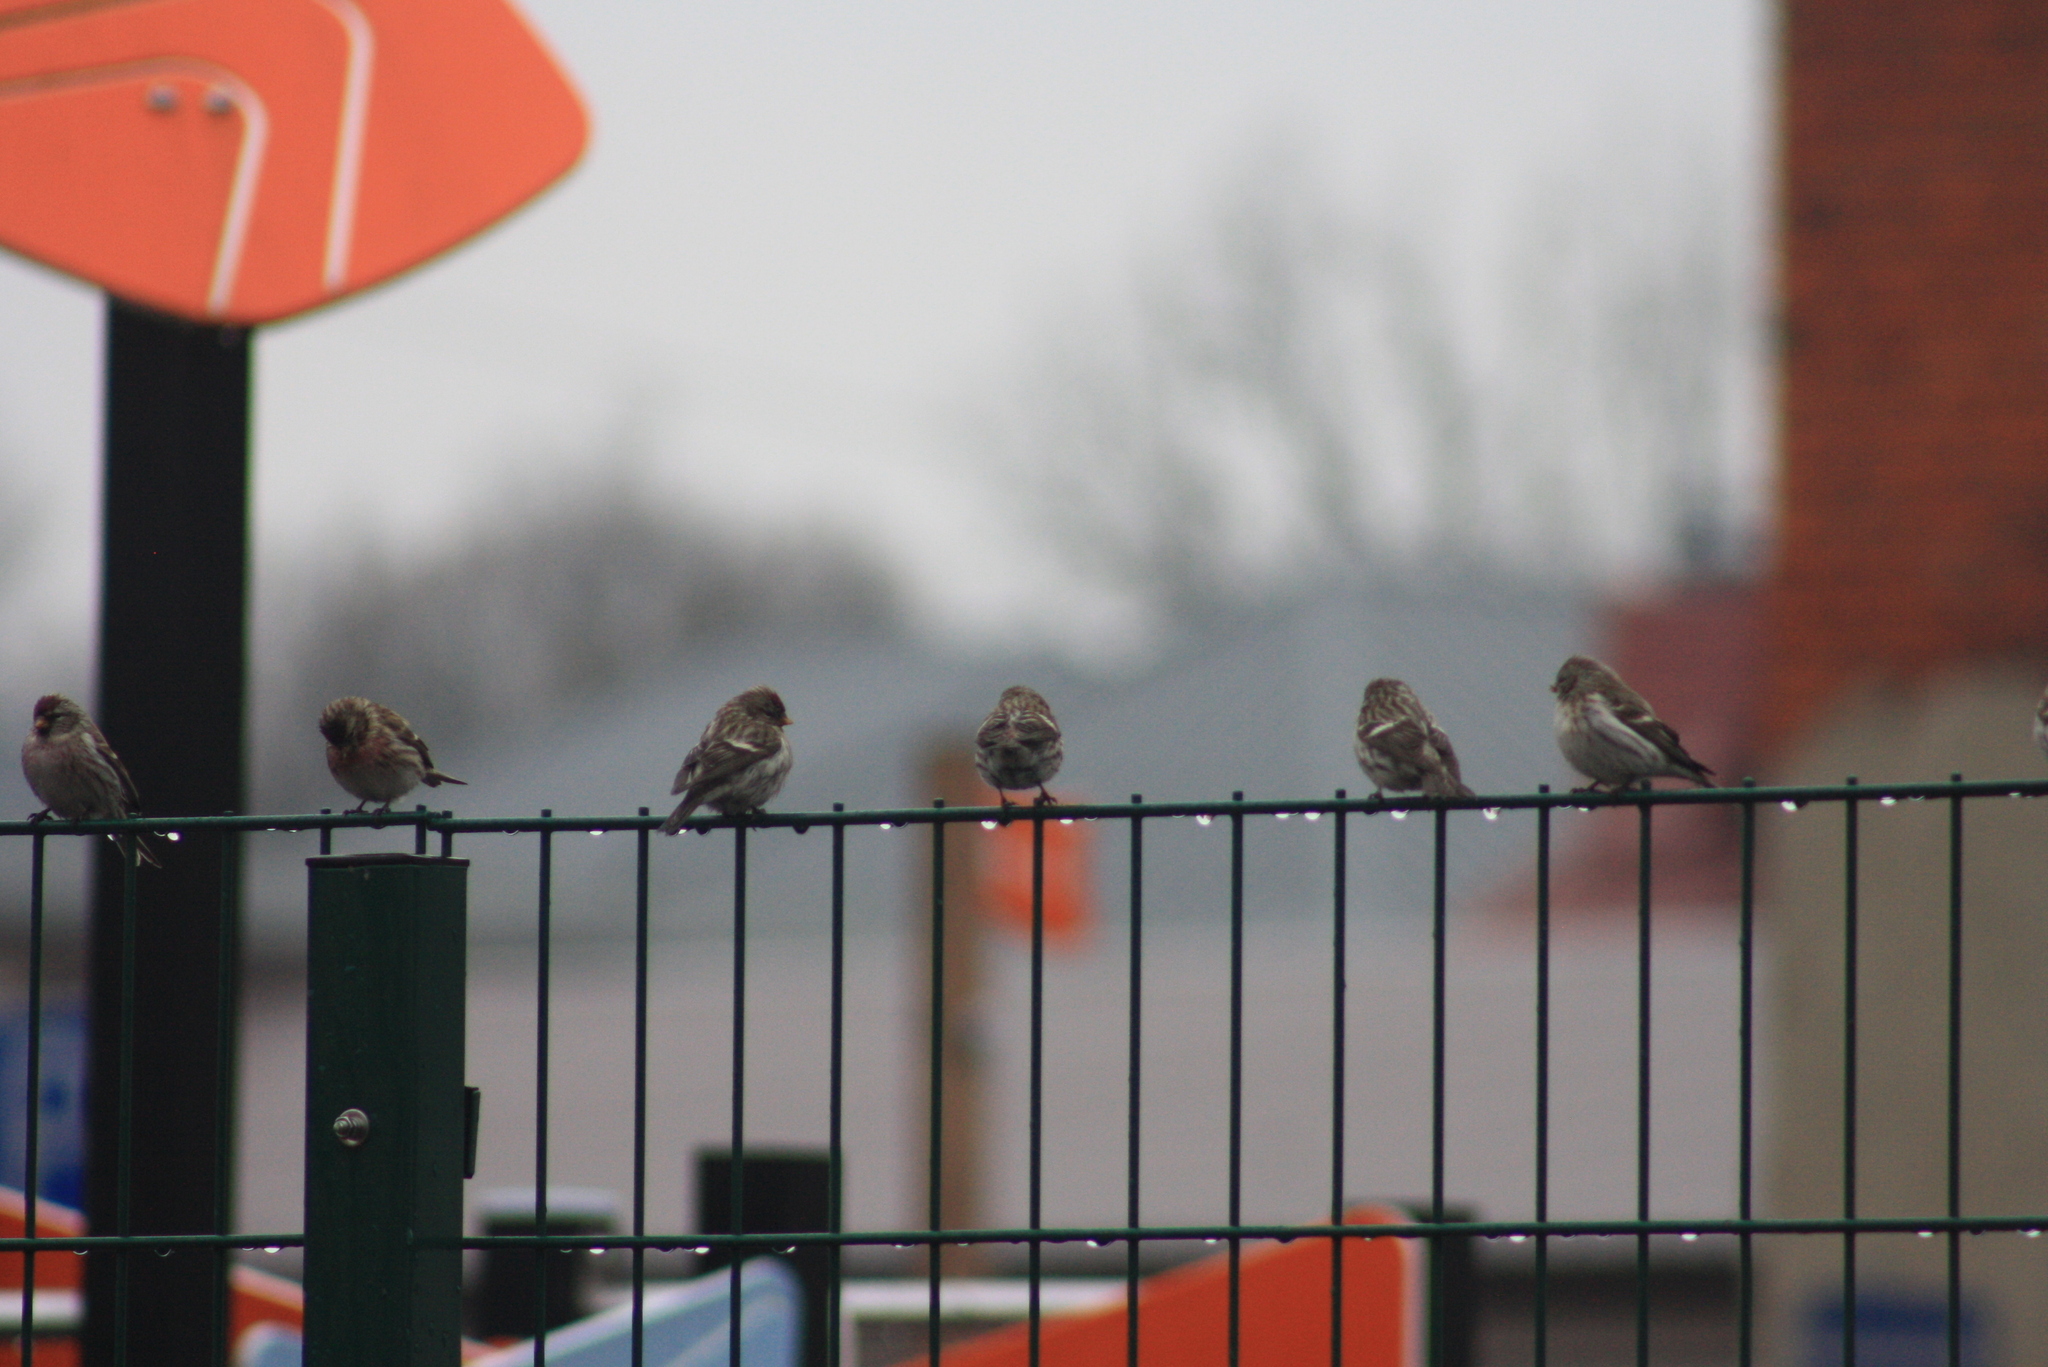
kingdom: Animalia
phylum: Chordata
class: Aves
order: Passeriformes
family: Fringillidae
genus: Acanthis
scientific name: Acanthis flammea
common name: Common redpoll
